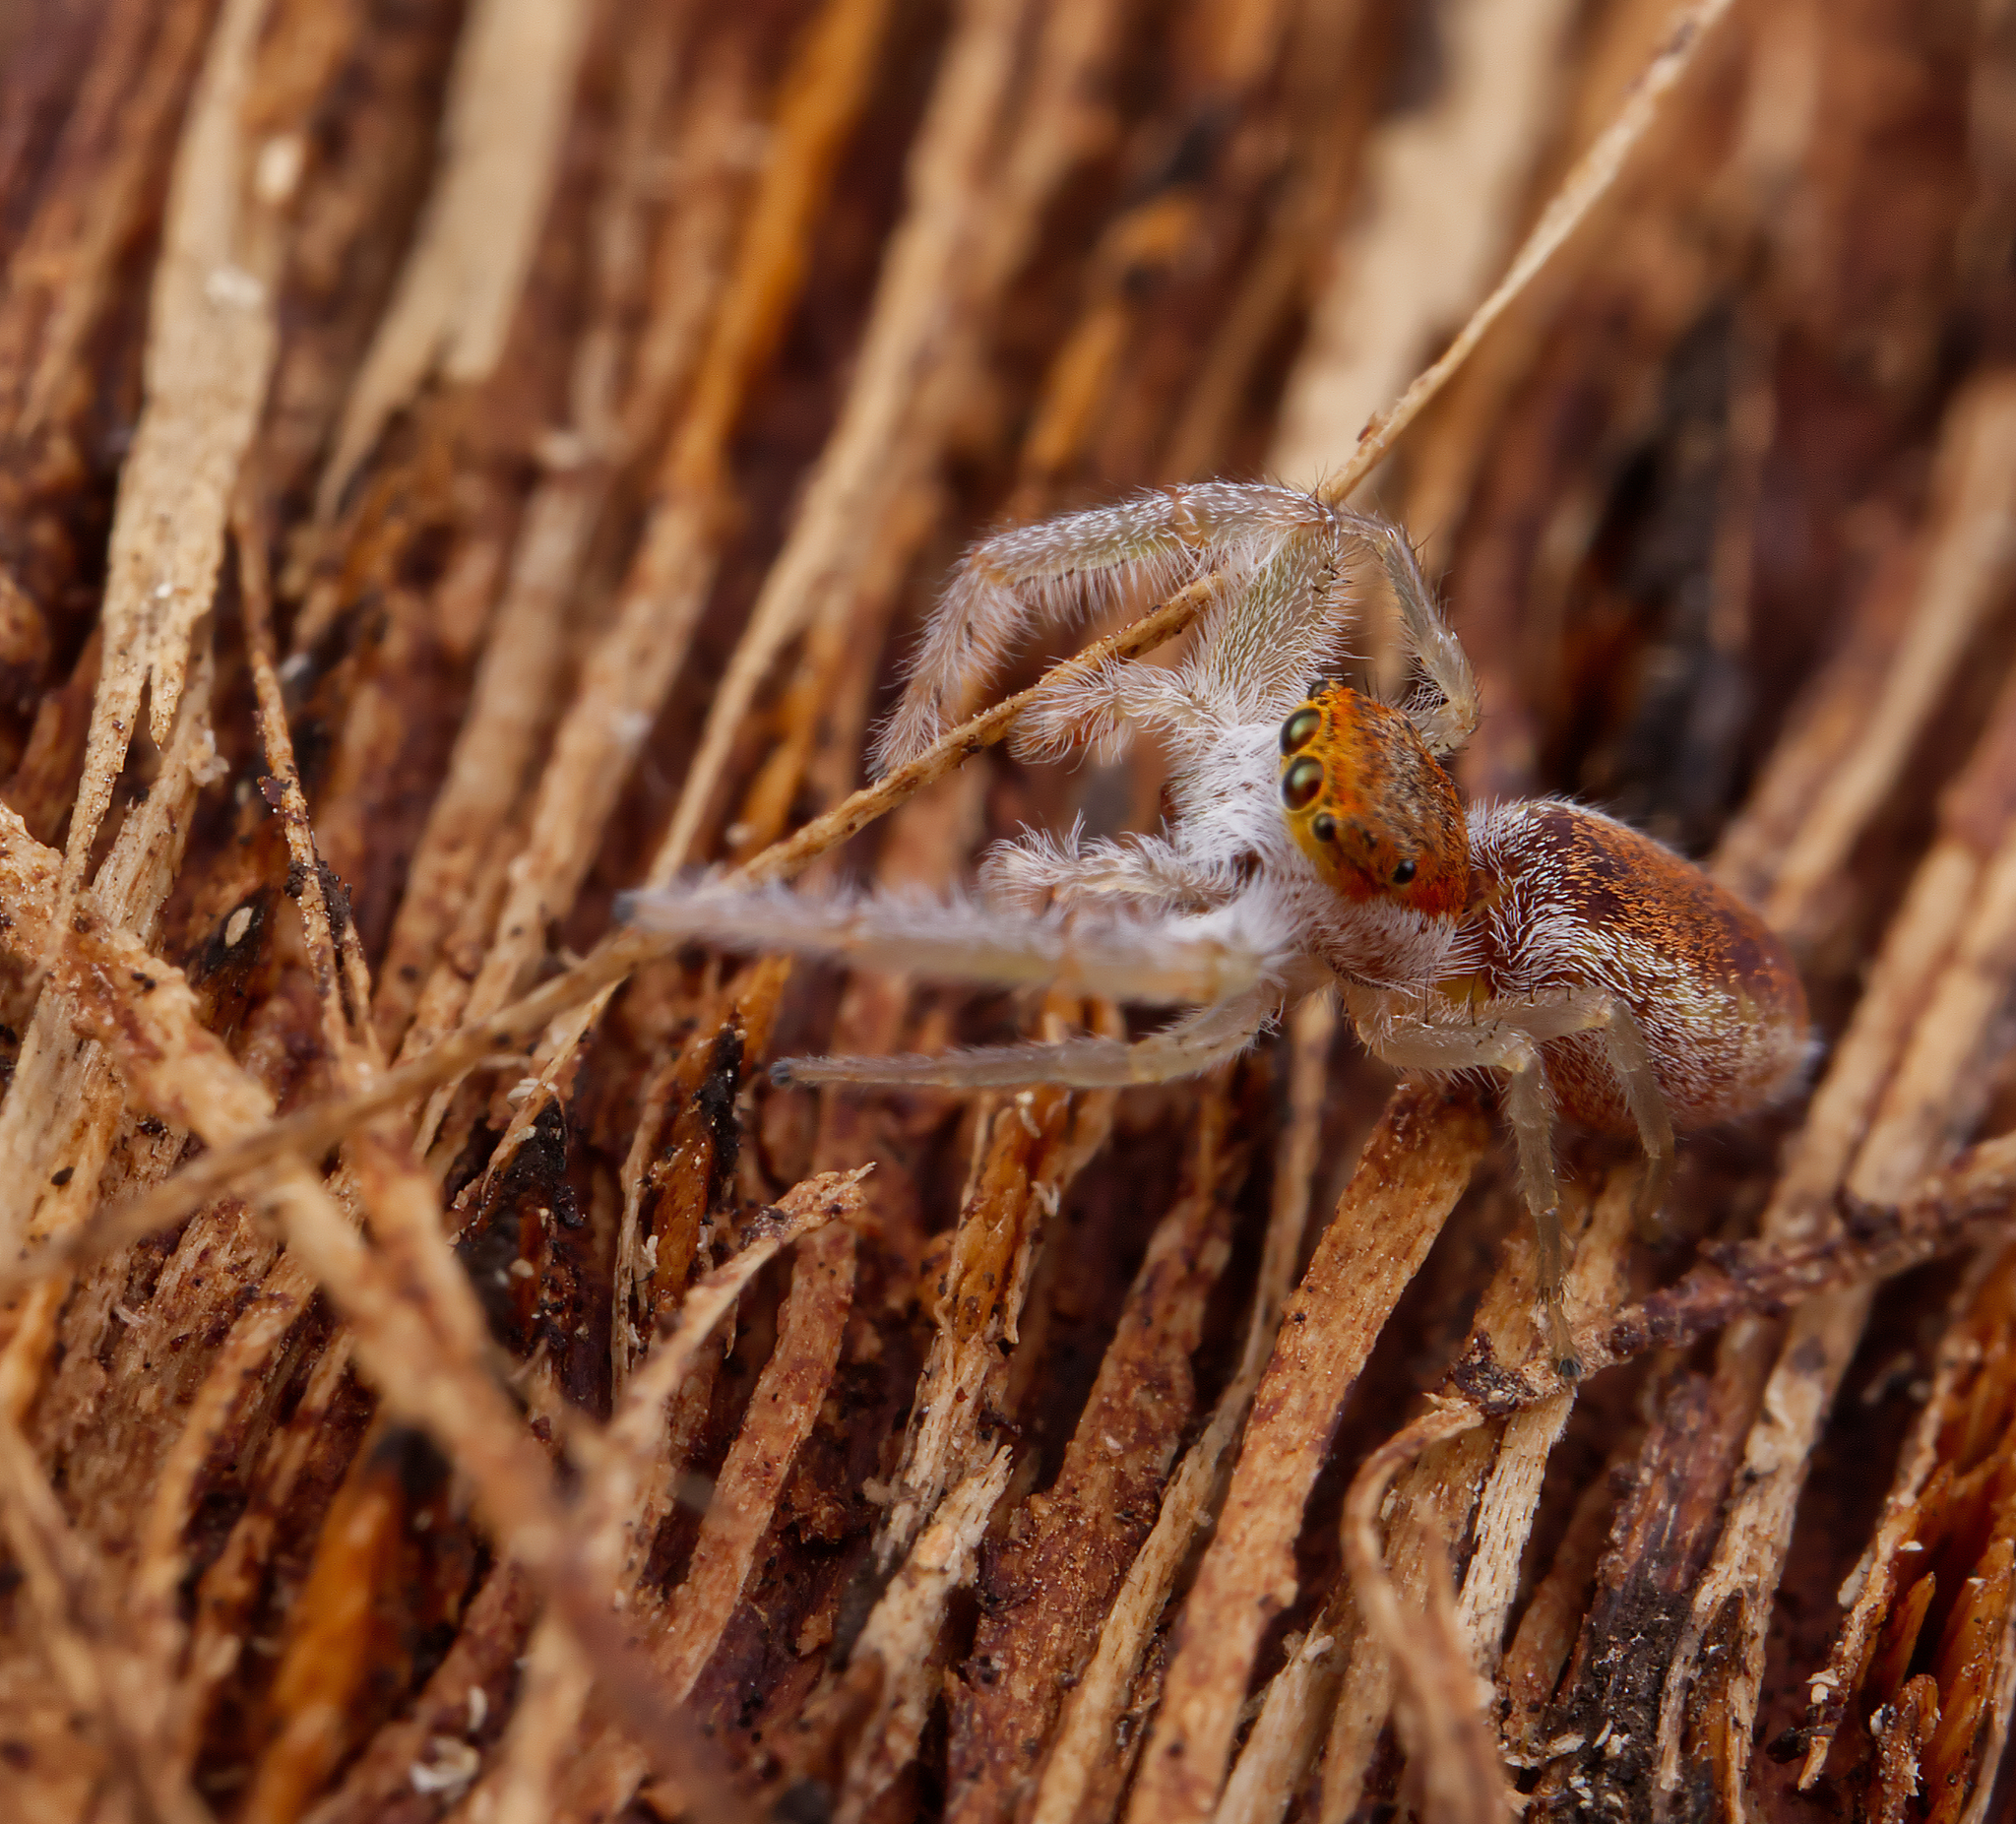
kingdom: Animalia
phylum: Arthropoda
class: Arachnida
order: Araneae
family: Salticidae
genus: Hentzia
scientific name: Hentzia mitrata
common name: White-jawed jumping spider
